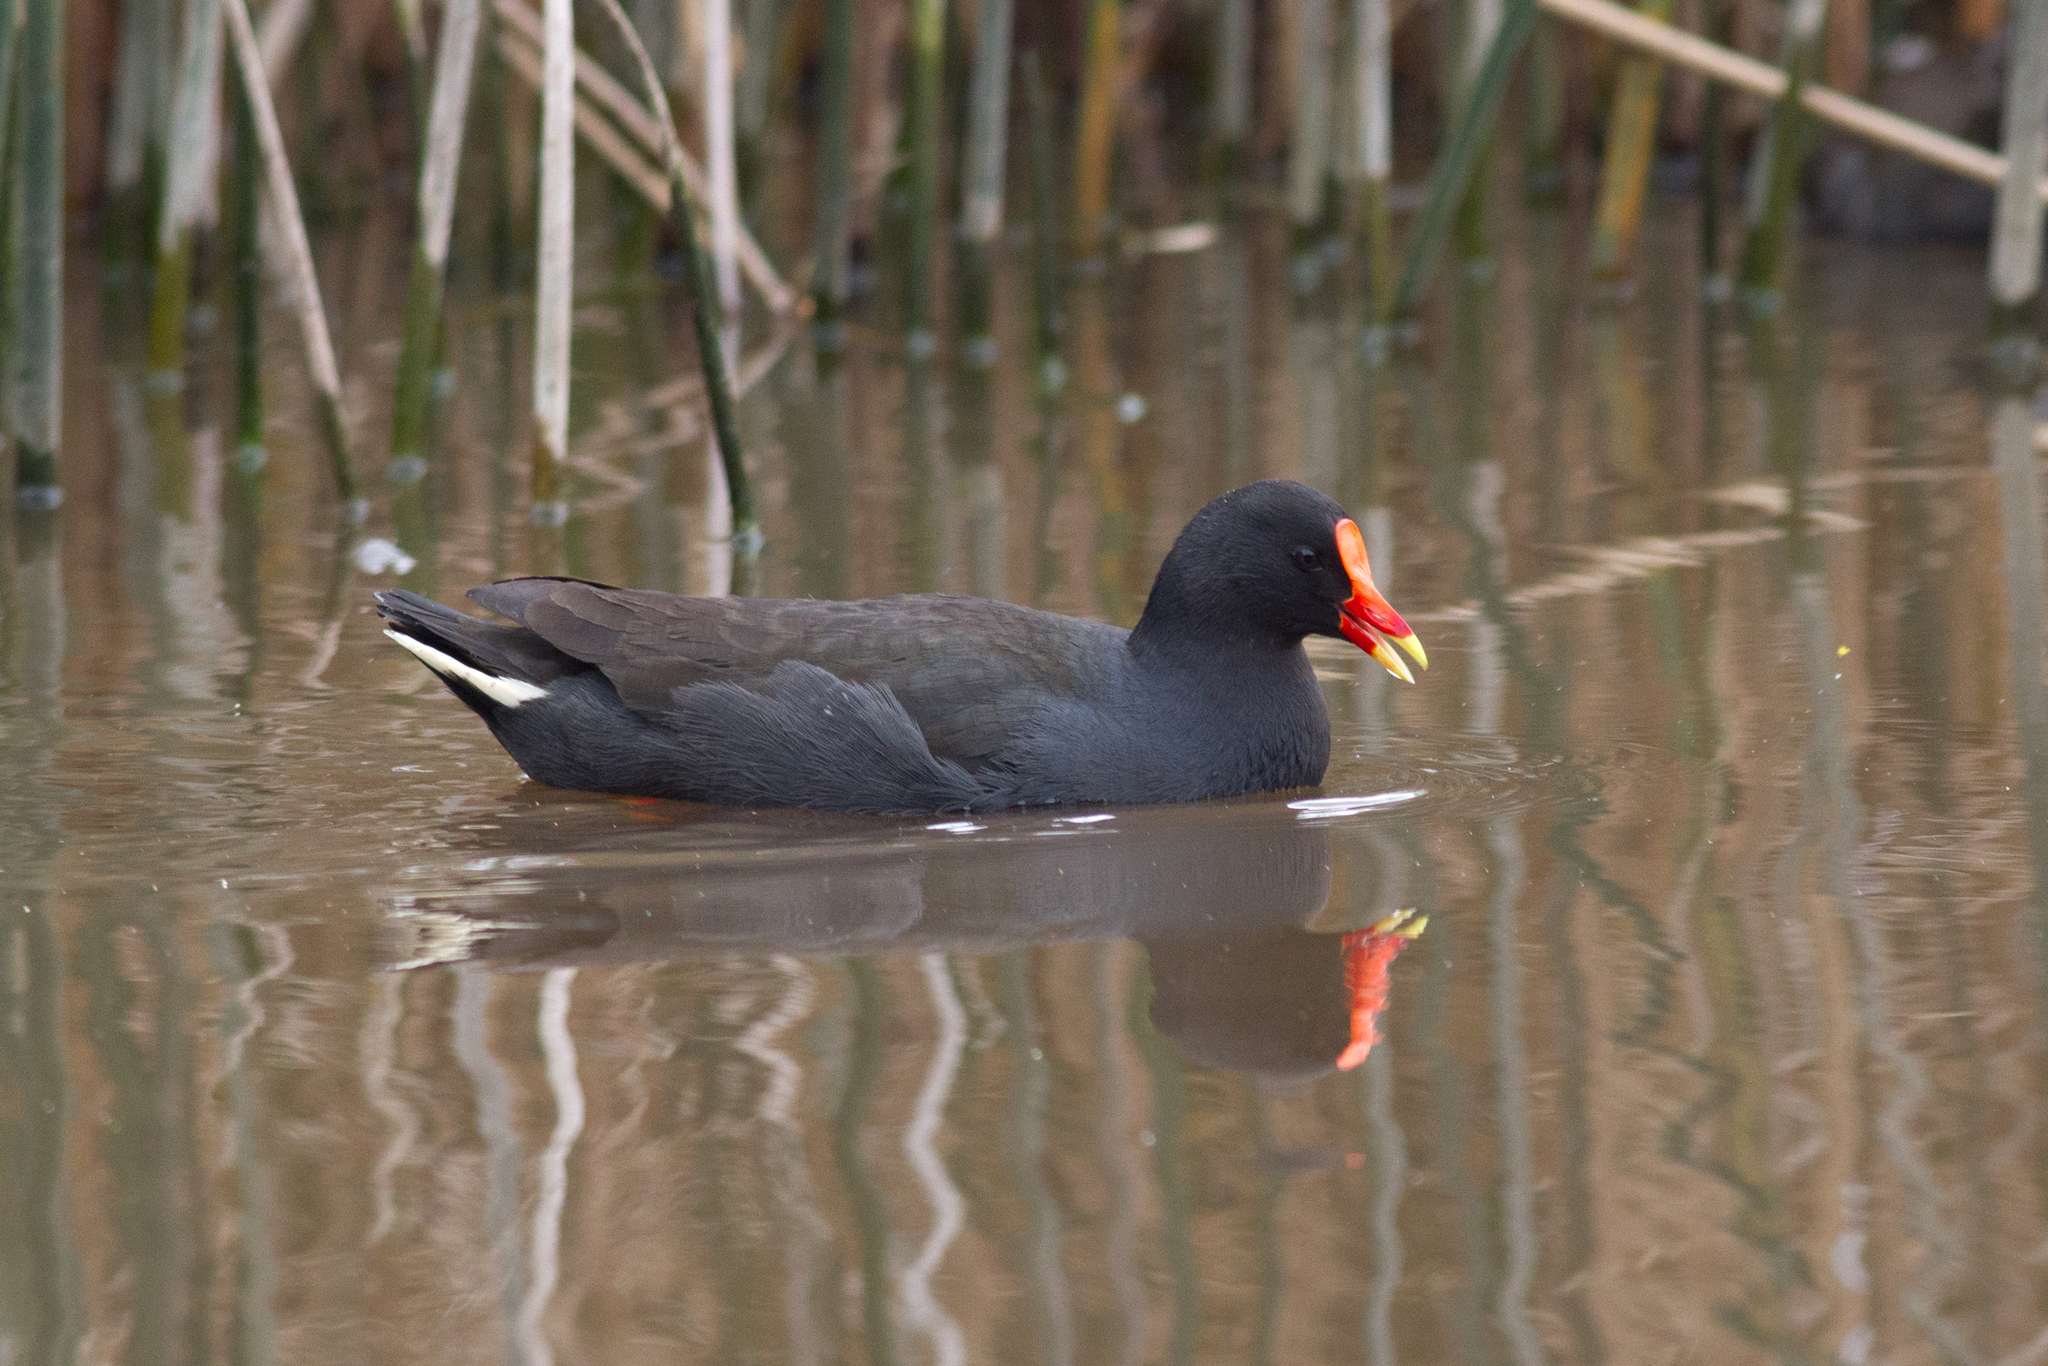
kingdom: Animalia
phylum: Chordata
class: Aves
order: Gruiformes
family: Rallidae
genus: Gallinula
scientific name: Gallinula tenebrosa
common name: Dusky moorhen
